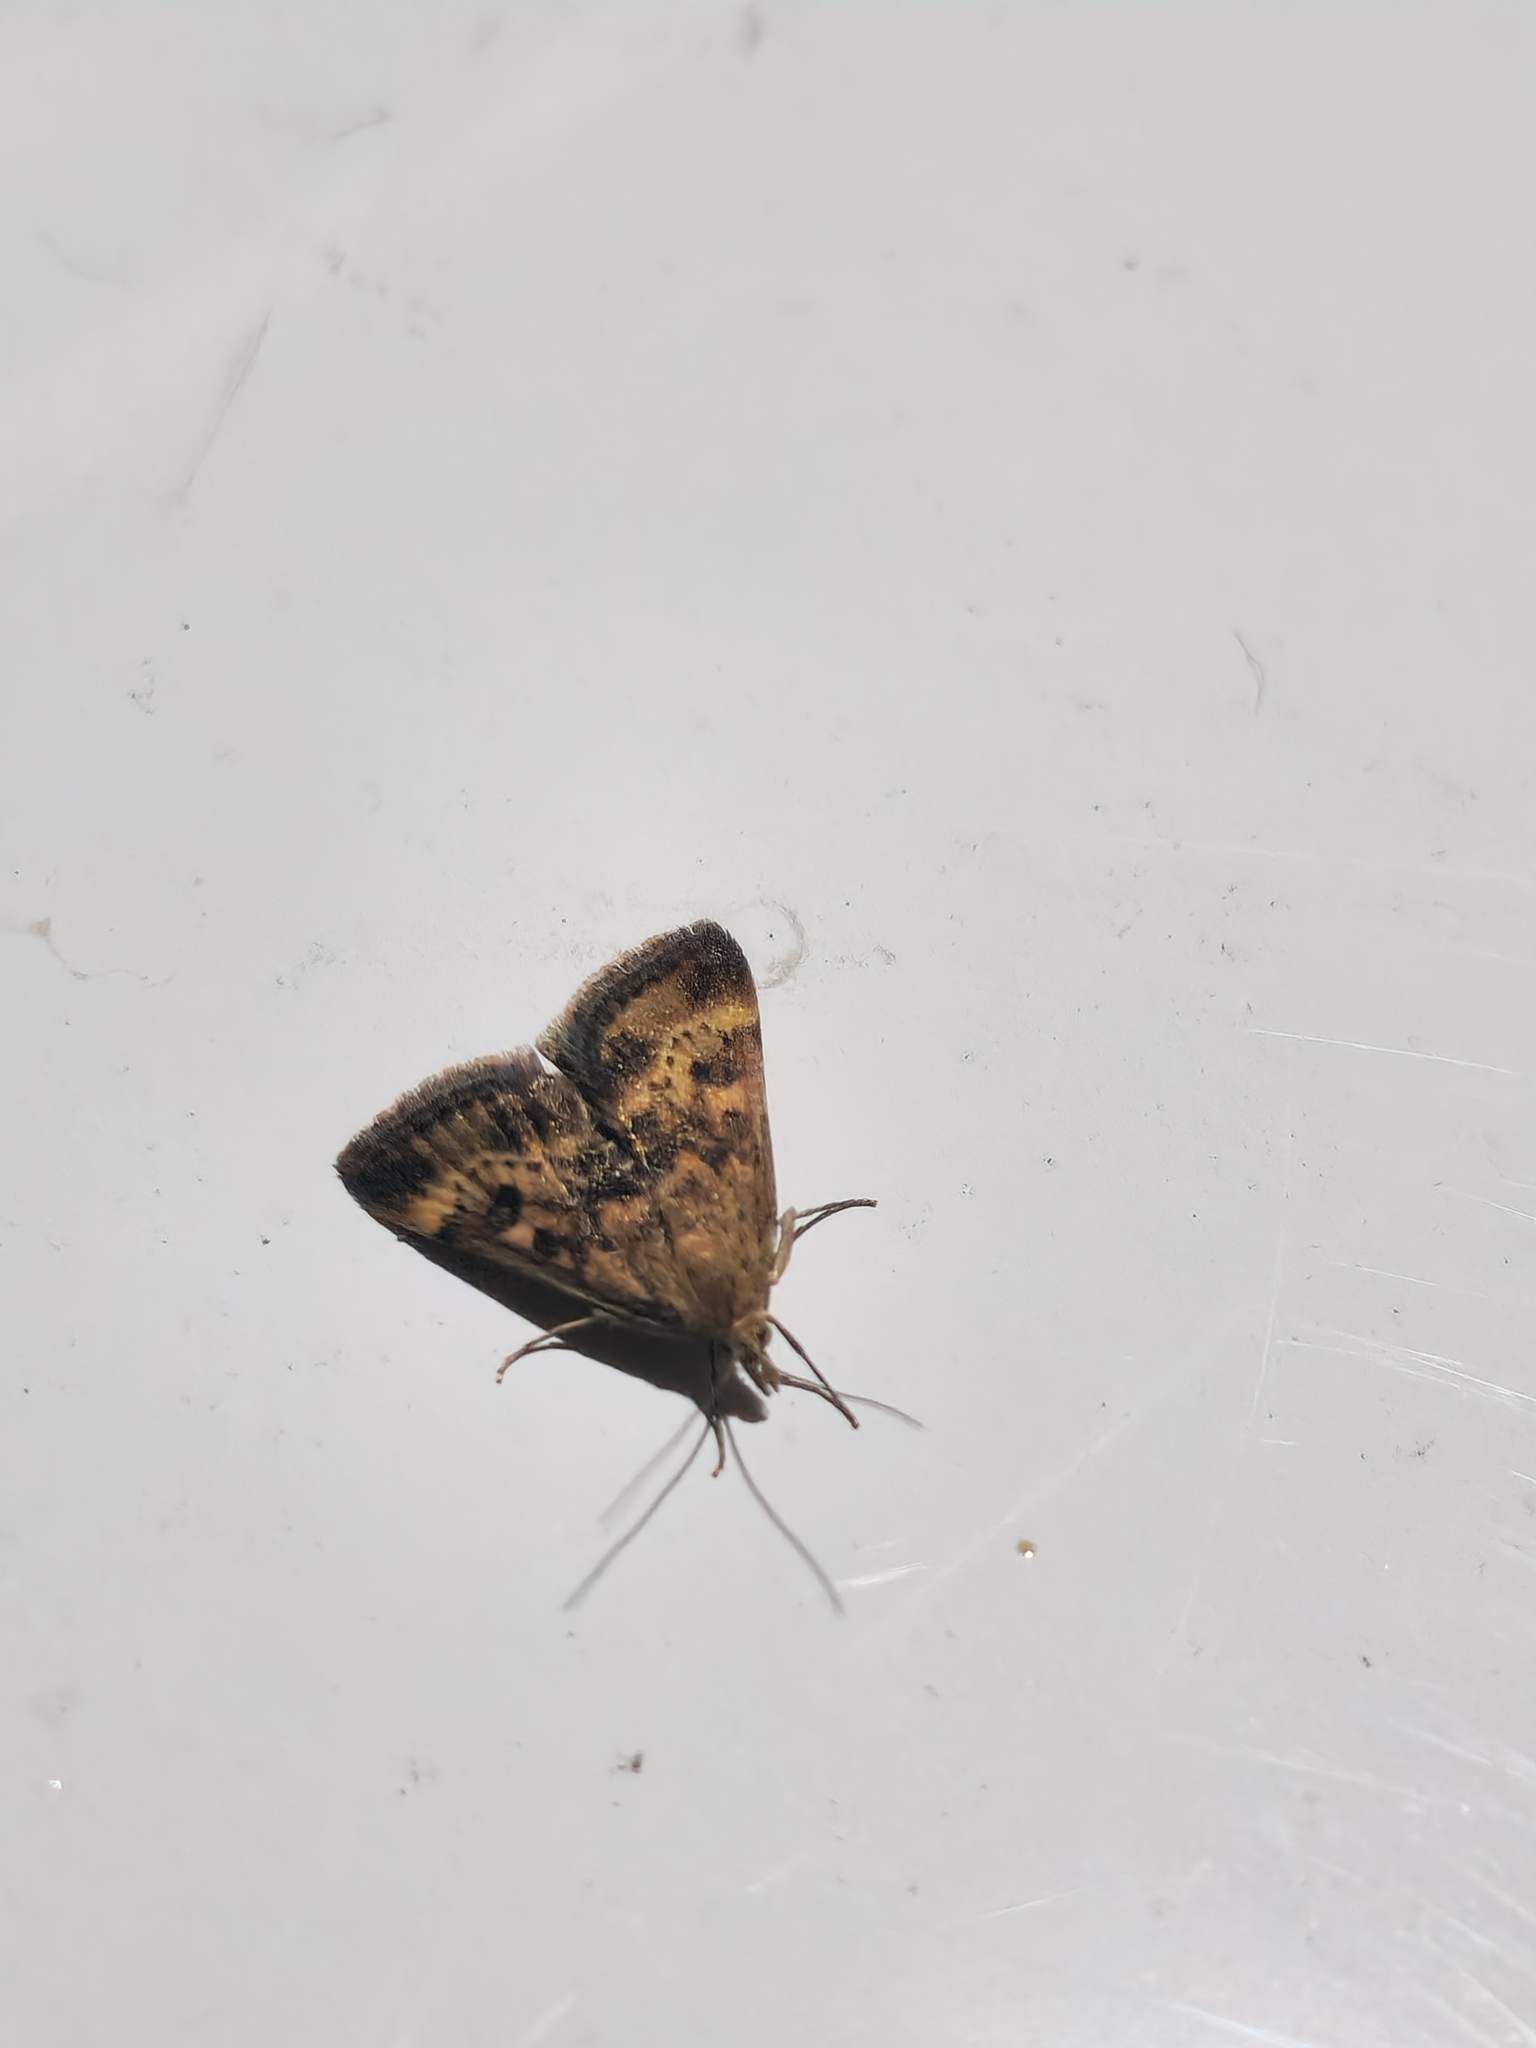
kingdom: Animalia
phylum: Arthropoda
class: Insecta
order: Lepidoptera
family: Crambidae
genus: Pyrausta
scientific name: Pyrausta despicata
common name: Straw-barred pearl
